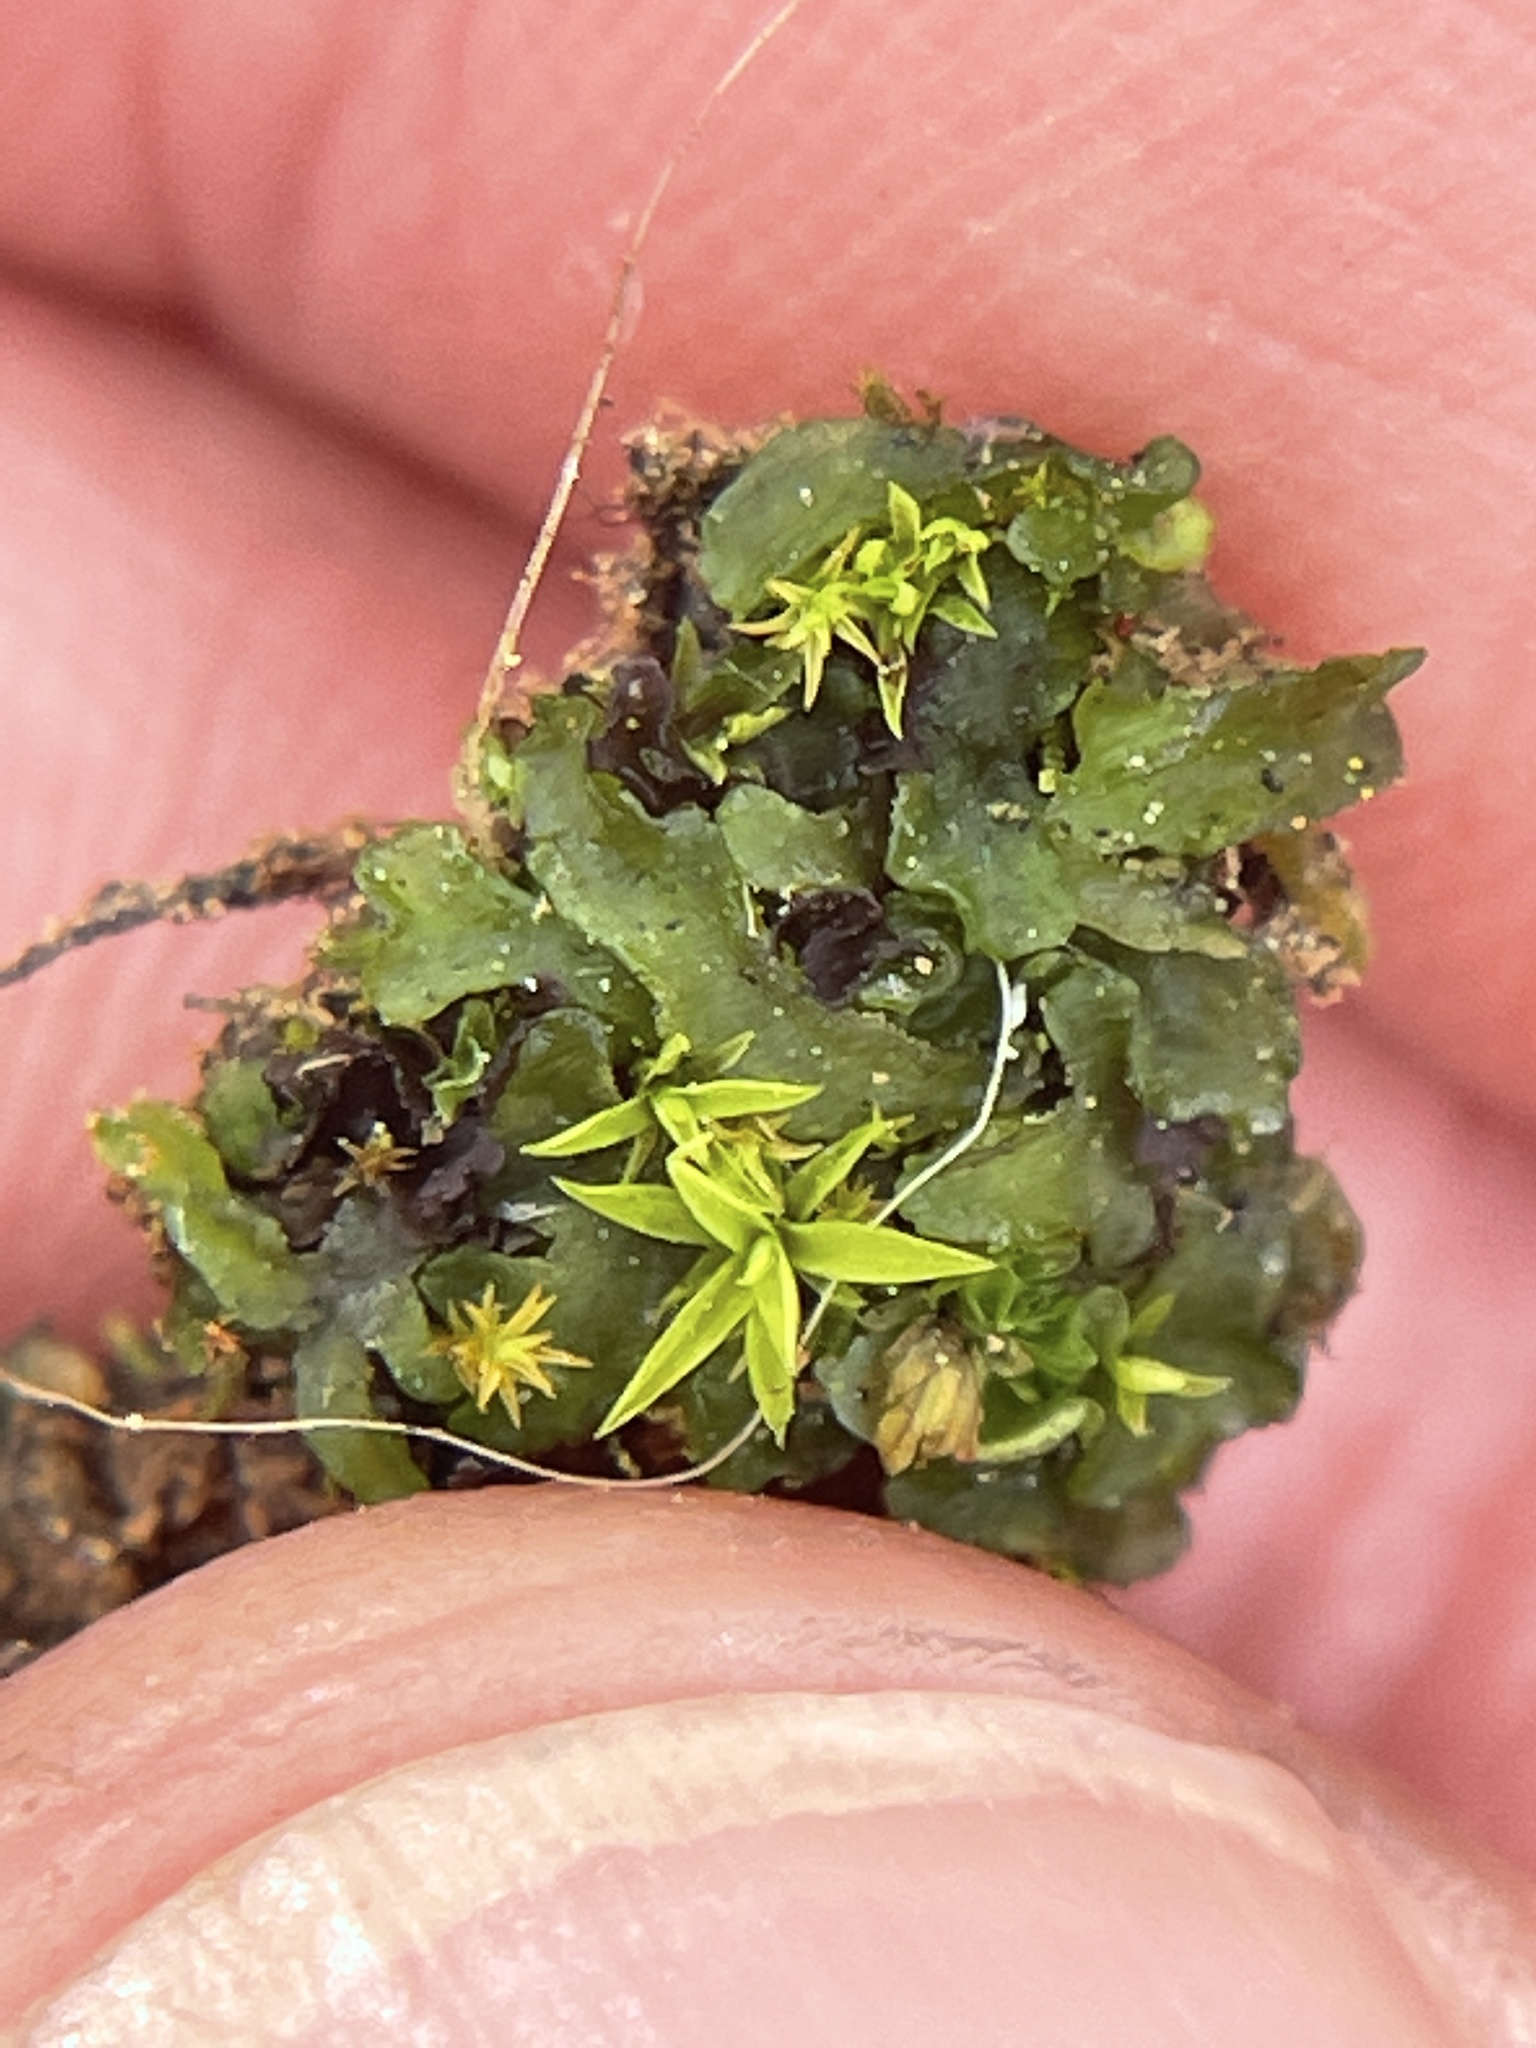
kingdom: Plantae
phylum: Anthocerotophyta
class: Anthocerotopsida
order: Phymatocerotales
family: Phymatocerotaceae
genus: Phymatoceros
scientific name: Phymatoceros bulbiculosus
